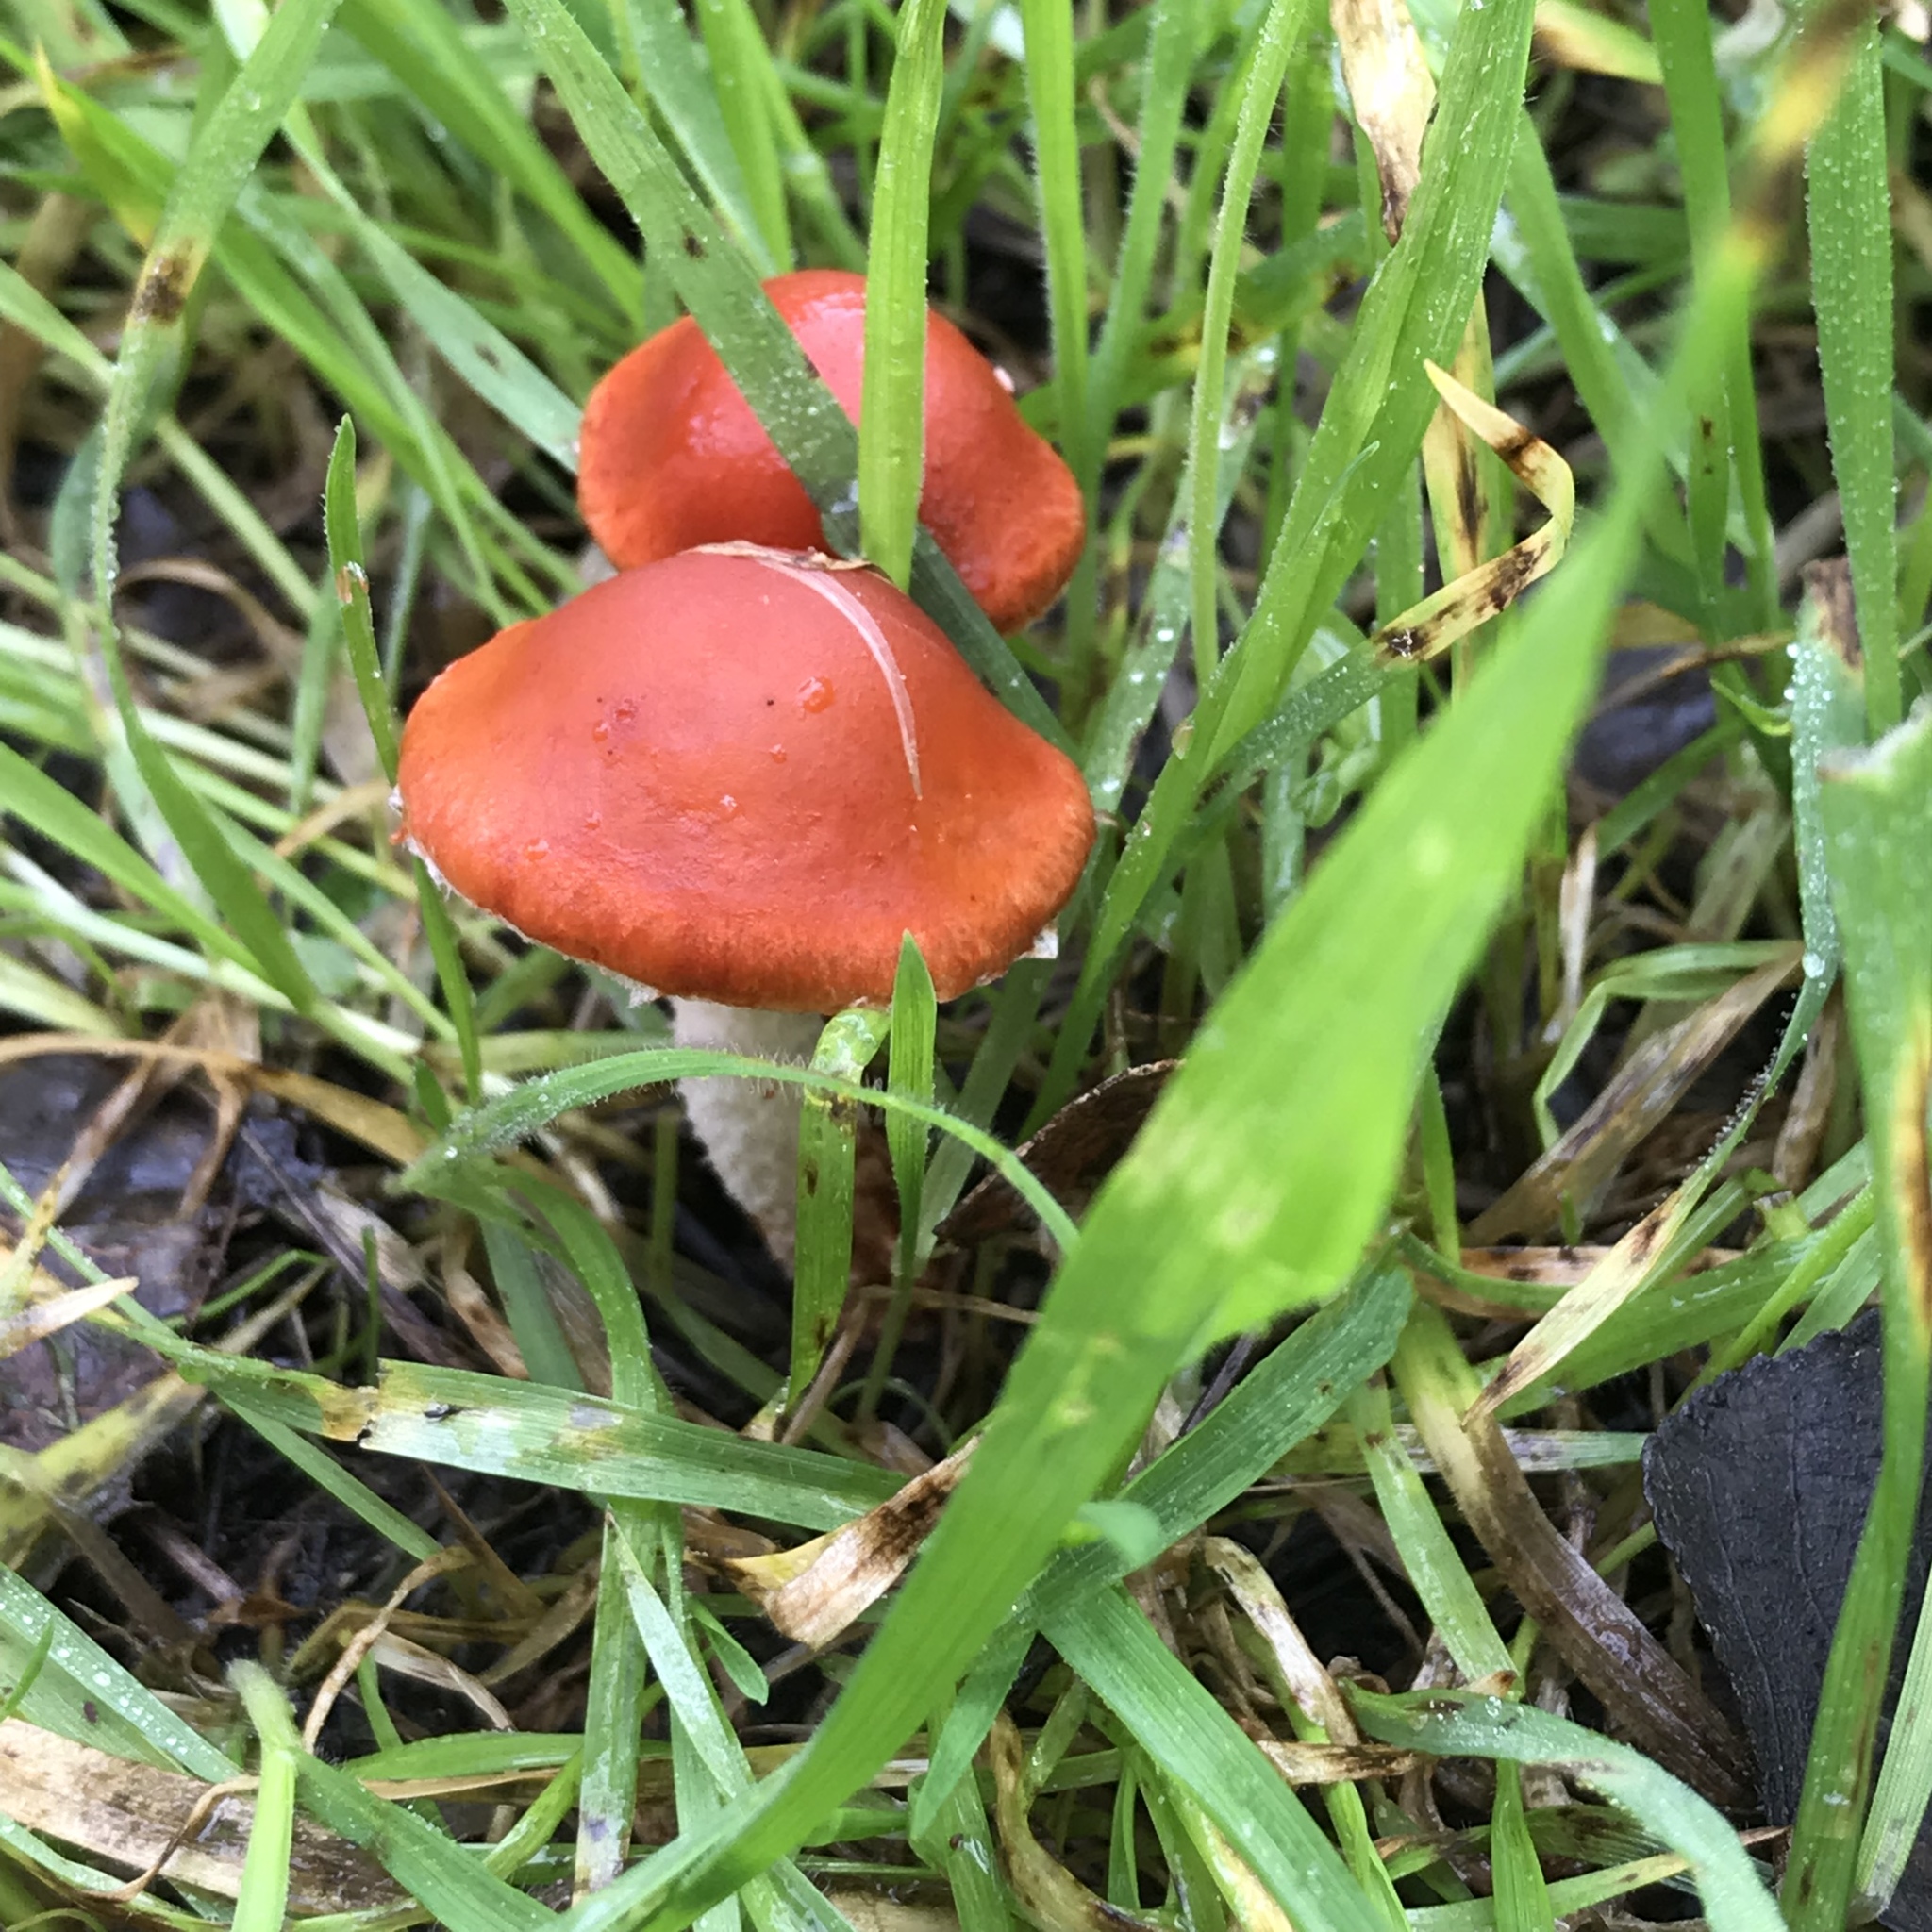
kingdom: Fungi
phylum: Basidiomycota
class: Agaricomycetes
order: Agaricales
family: Strophariaceae
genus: Leratiomyces
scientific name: Leratiomyces ceres
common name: Redlead roundhead
